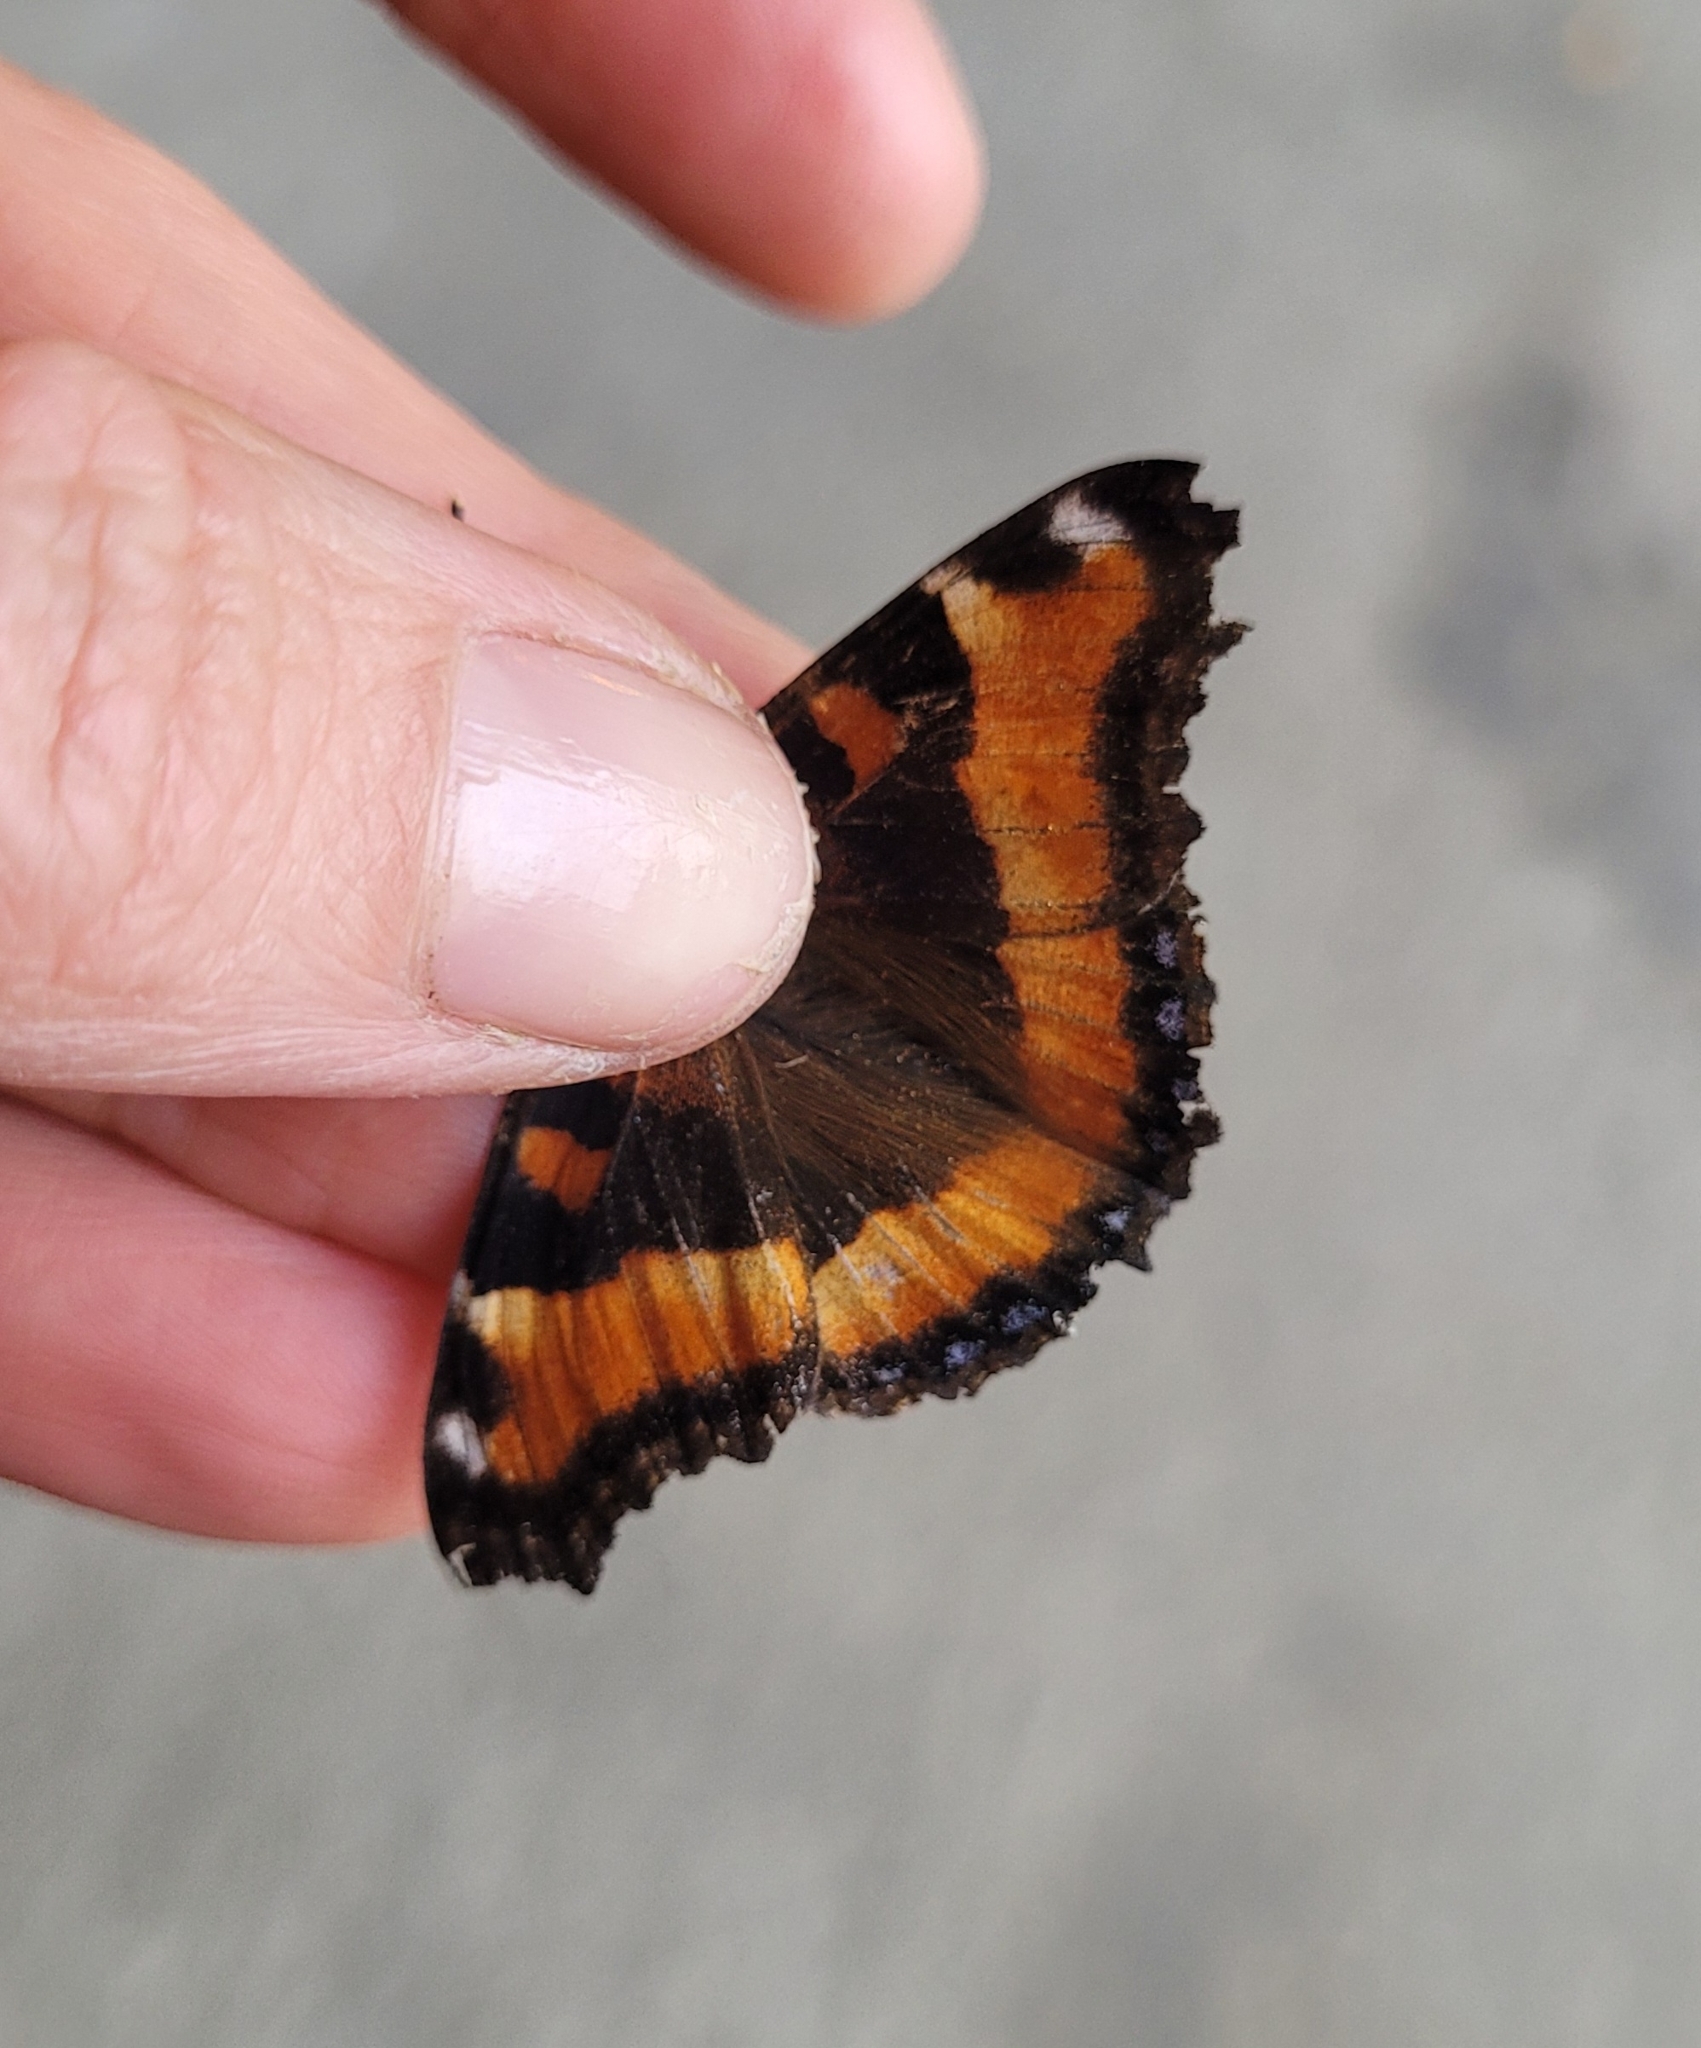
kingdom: Animalia
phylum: Arthropoda
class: Insecta
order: Lepidoptera
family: Nymphalidae
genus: Aglais
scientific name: Aglais milberti
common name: Milbert's tortoiseshell
